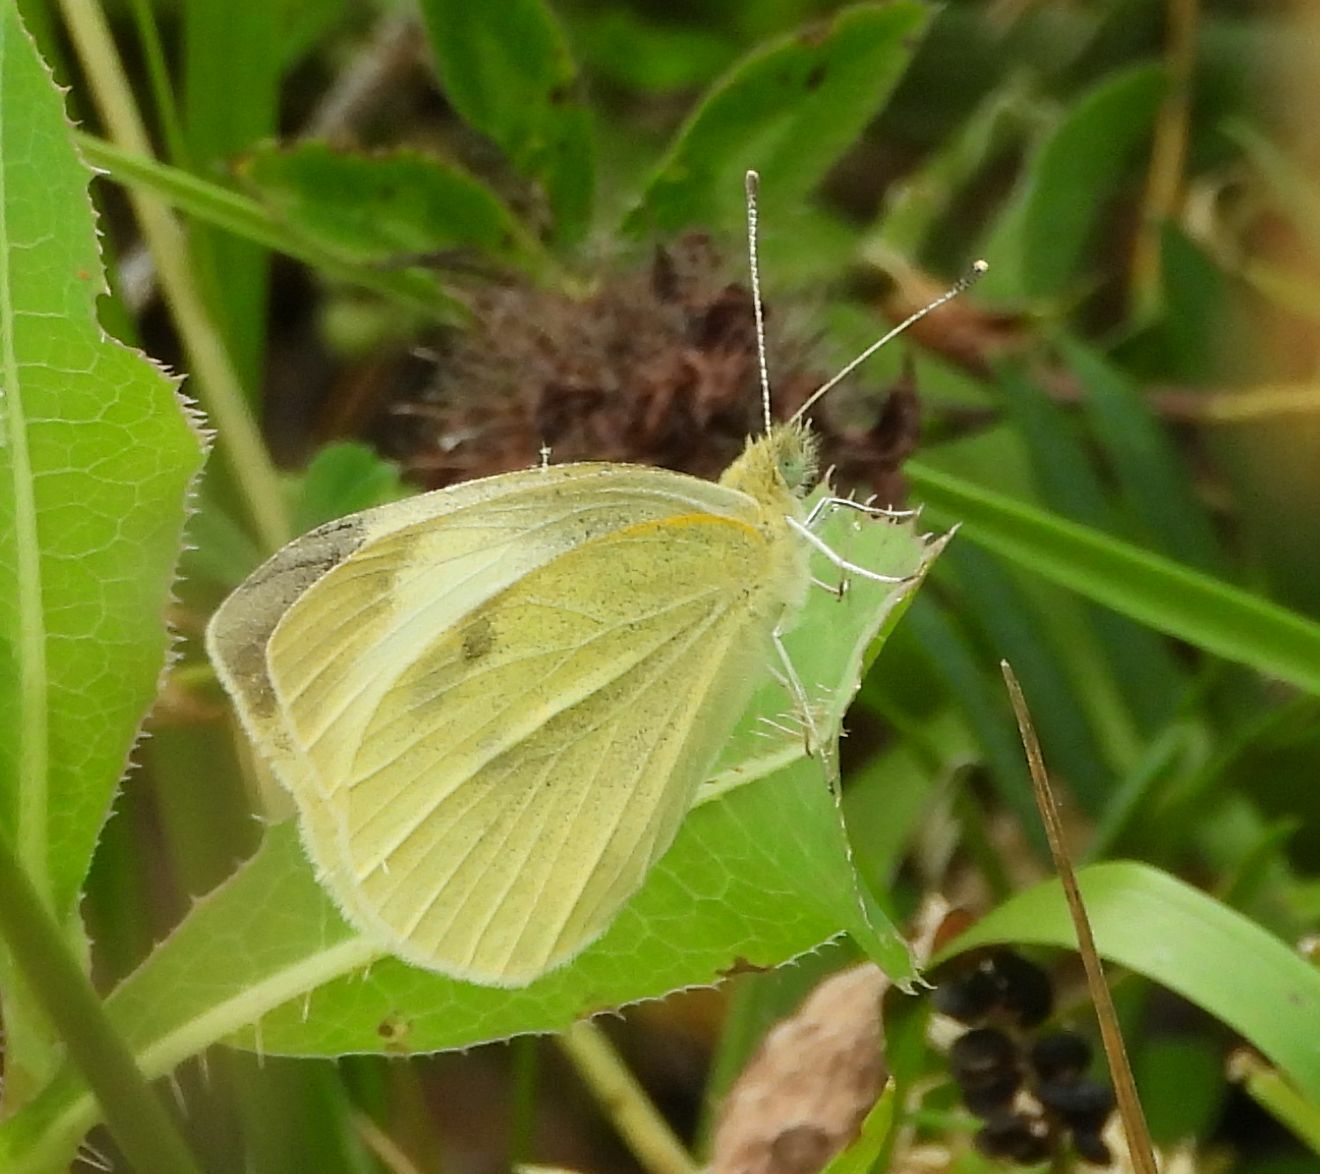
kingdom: Animalia
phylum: Arthropoda
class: Insecta
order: Lepidoptera
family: Pieridae
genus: Pieris
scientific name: Pieris rapae
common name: Small white
